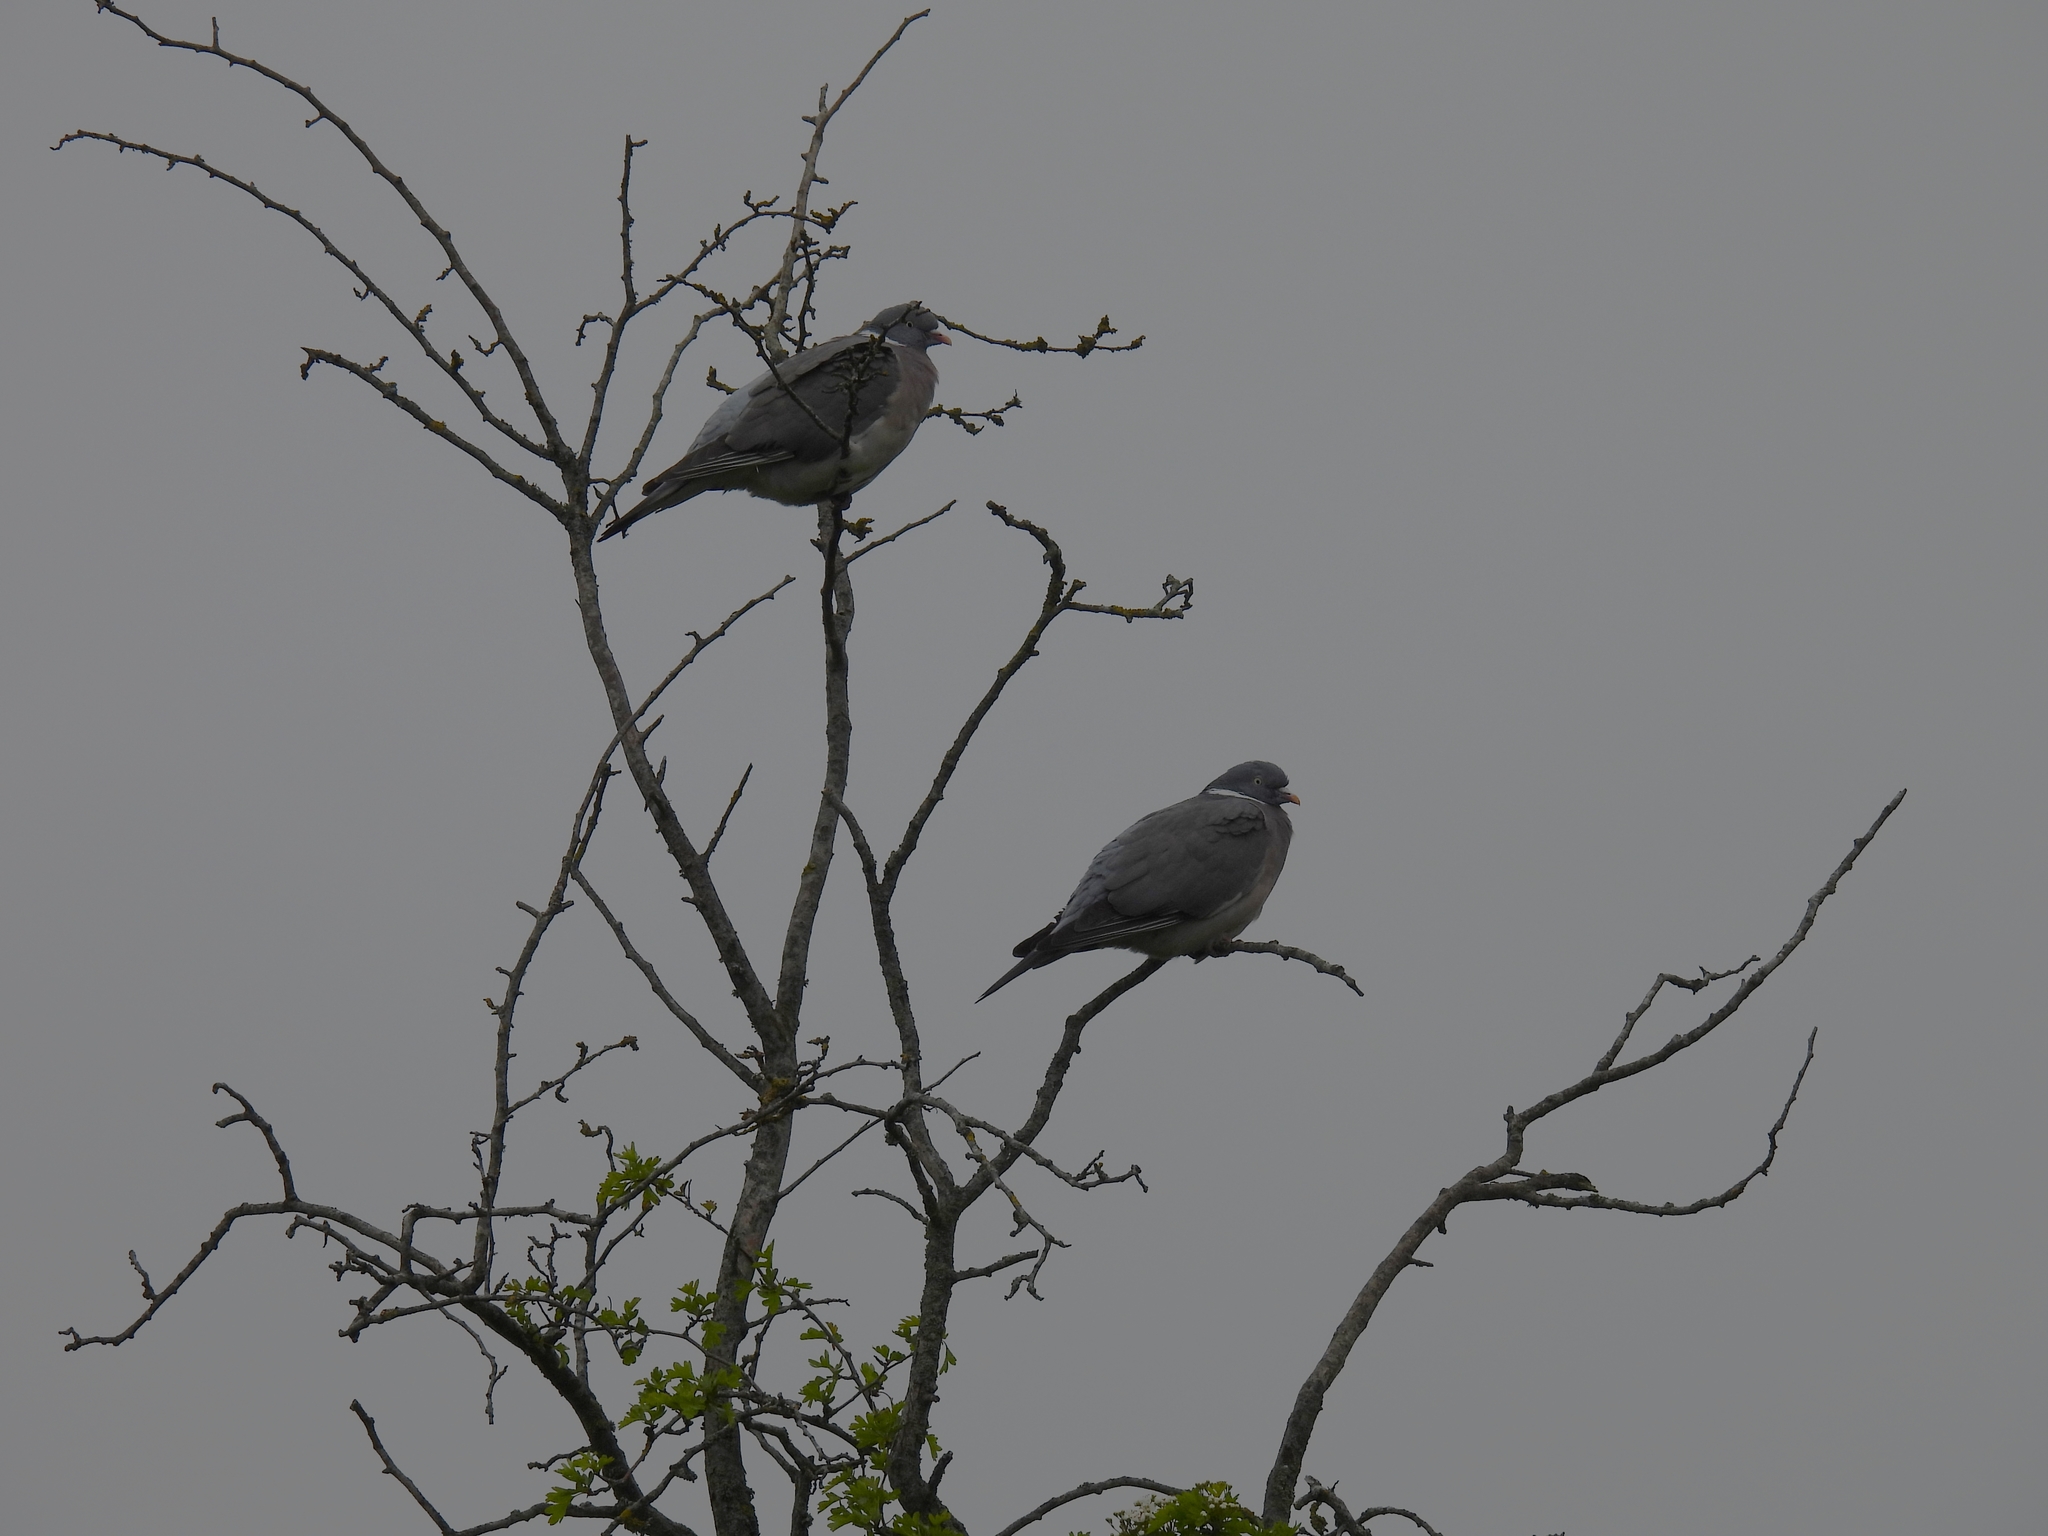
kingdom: Animalia
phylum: Chordata
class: Aves
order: Columbiformes
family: Columbidae
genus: Columba
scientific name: Columba palumbus
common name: Common wood pigeon
